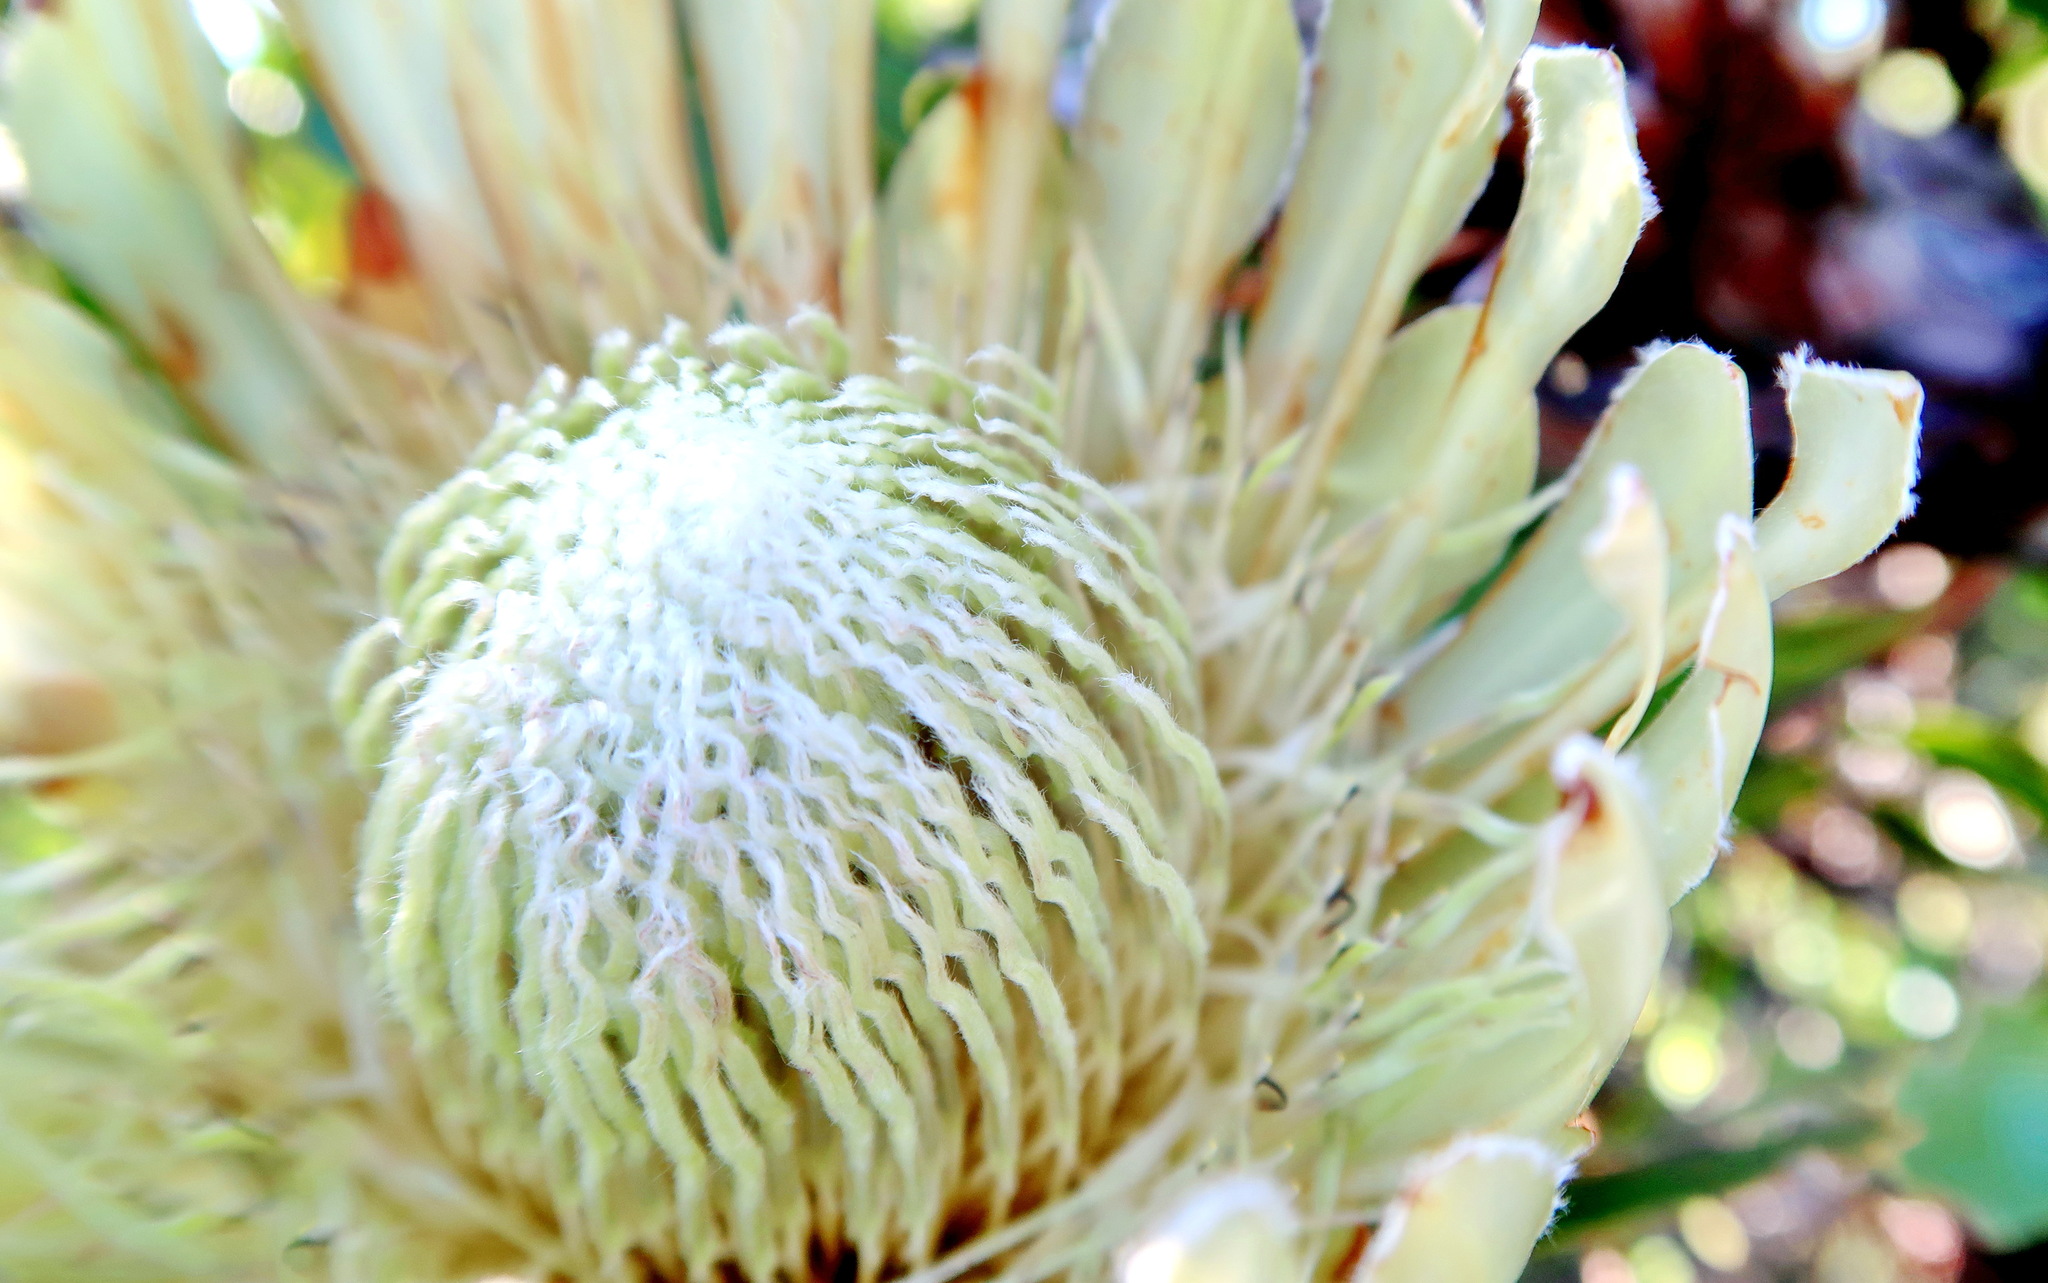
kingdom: Plantae
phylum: Tracheophyta
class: Magnoliopsida
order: Proteales
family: Proteaceae
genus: Protea
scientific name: Protea obtusifolia
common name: Bredasdorp sugarbush
